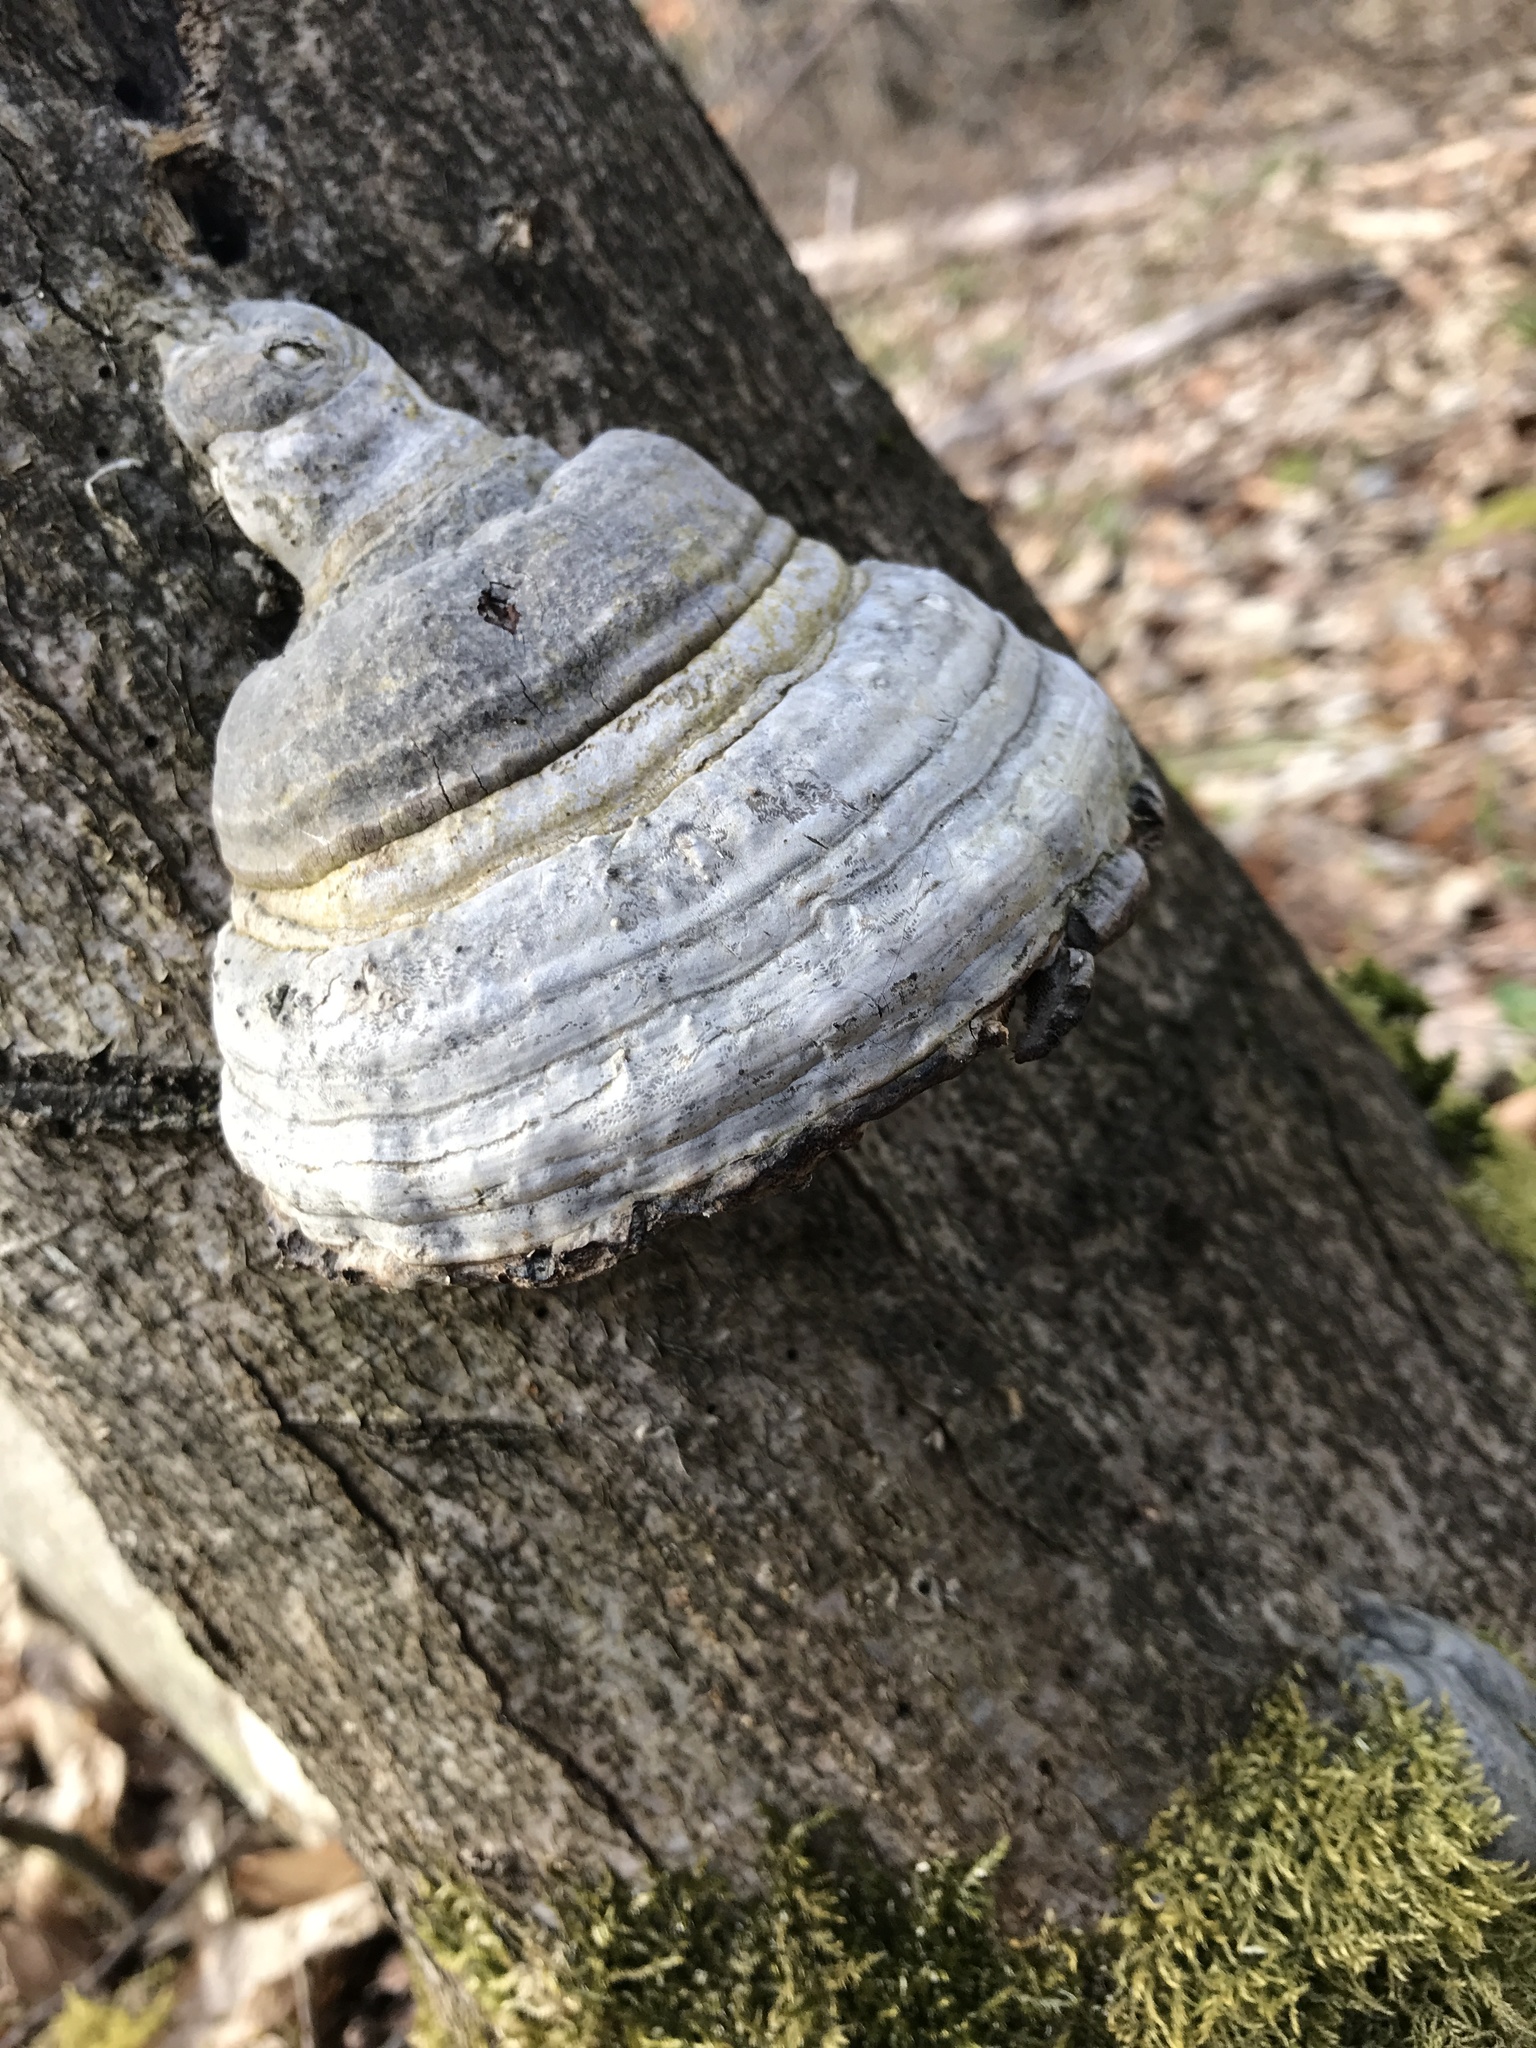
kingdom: Fungi
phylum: Basidiomycota
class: Agaricomycetes
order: Polyporales
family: Polyporaceae
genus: Fomes
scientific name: Fomes fomentarius
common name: Hoof fungus
